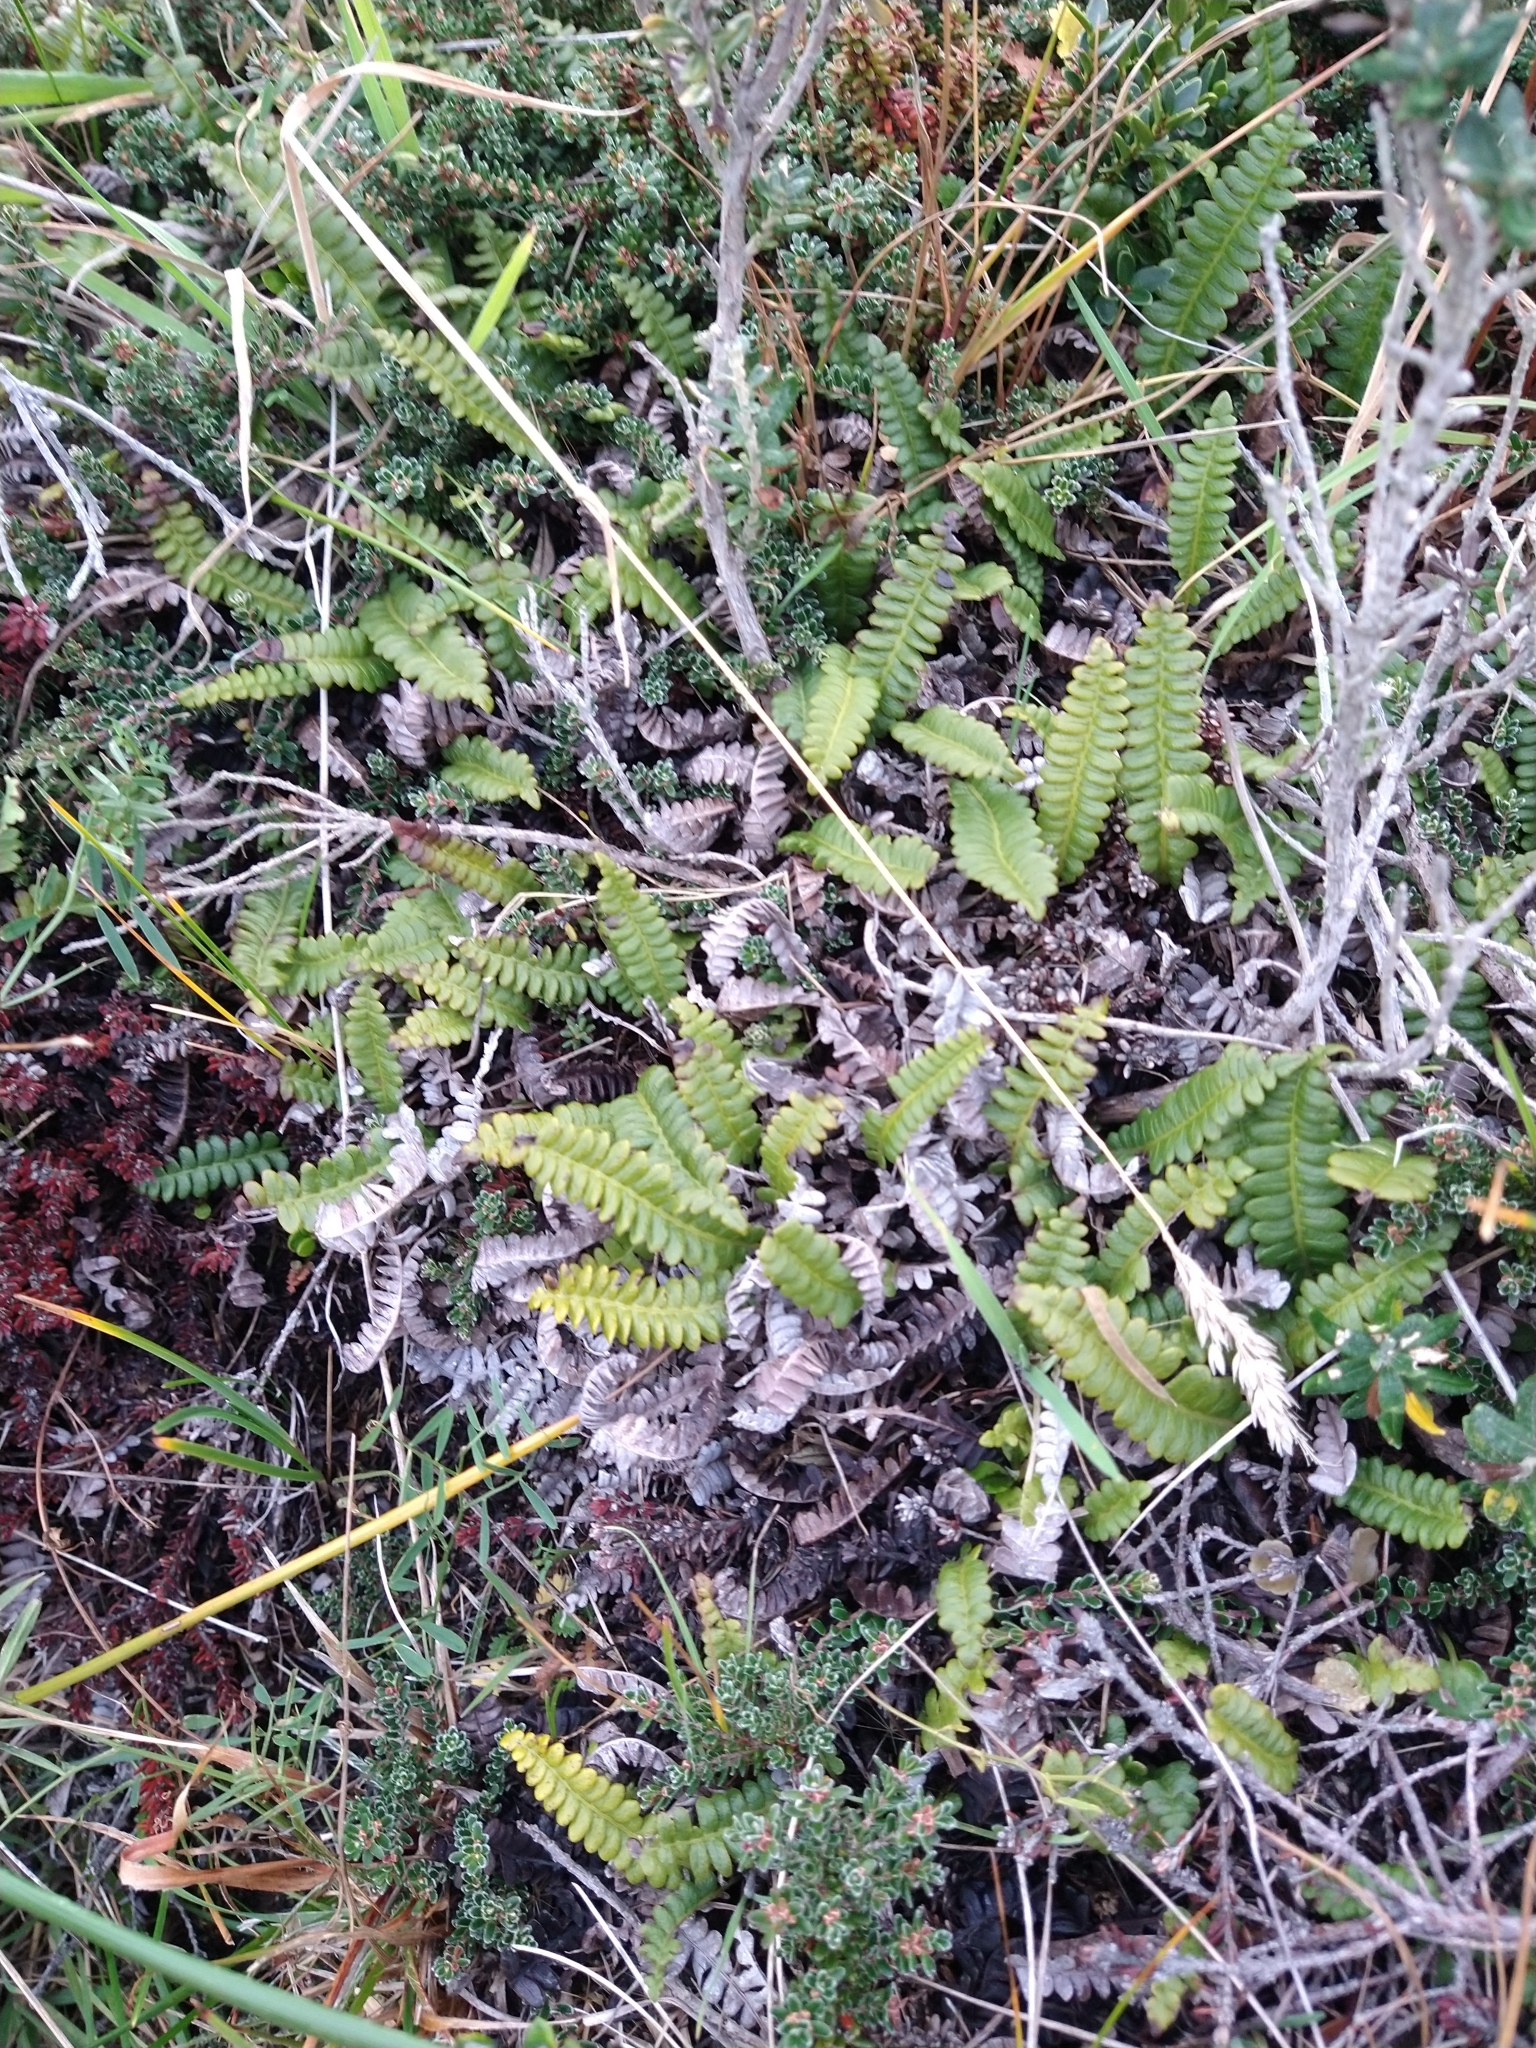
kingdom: Plantae
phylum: Tracheophyta
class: Polypodiopsida
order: Polypodiales
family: Blechnaceae
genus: Austroblechnum
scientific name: Austroblechnum penna-marina
